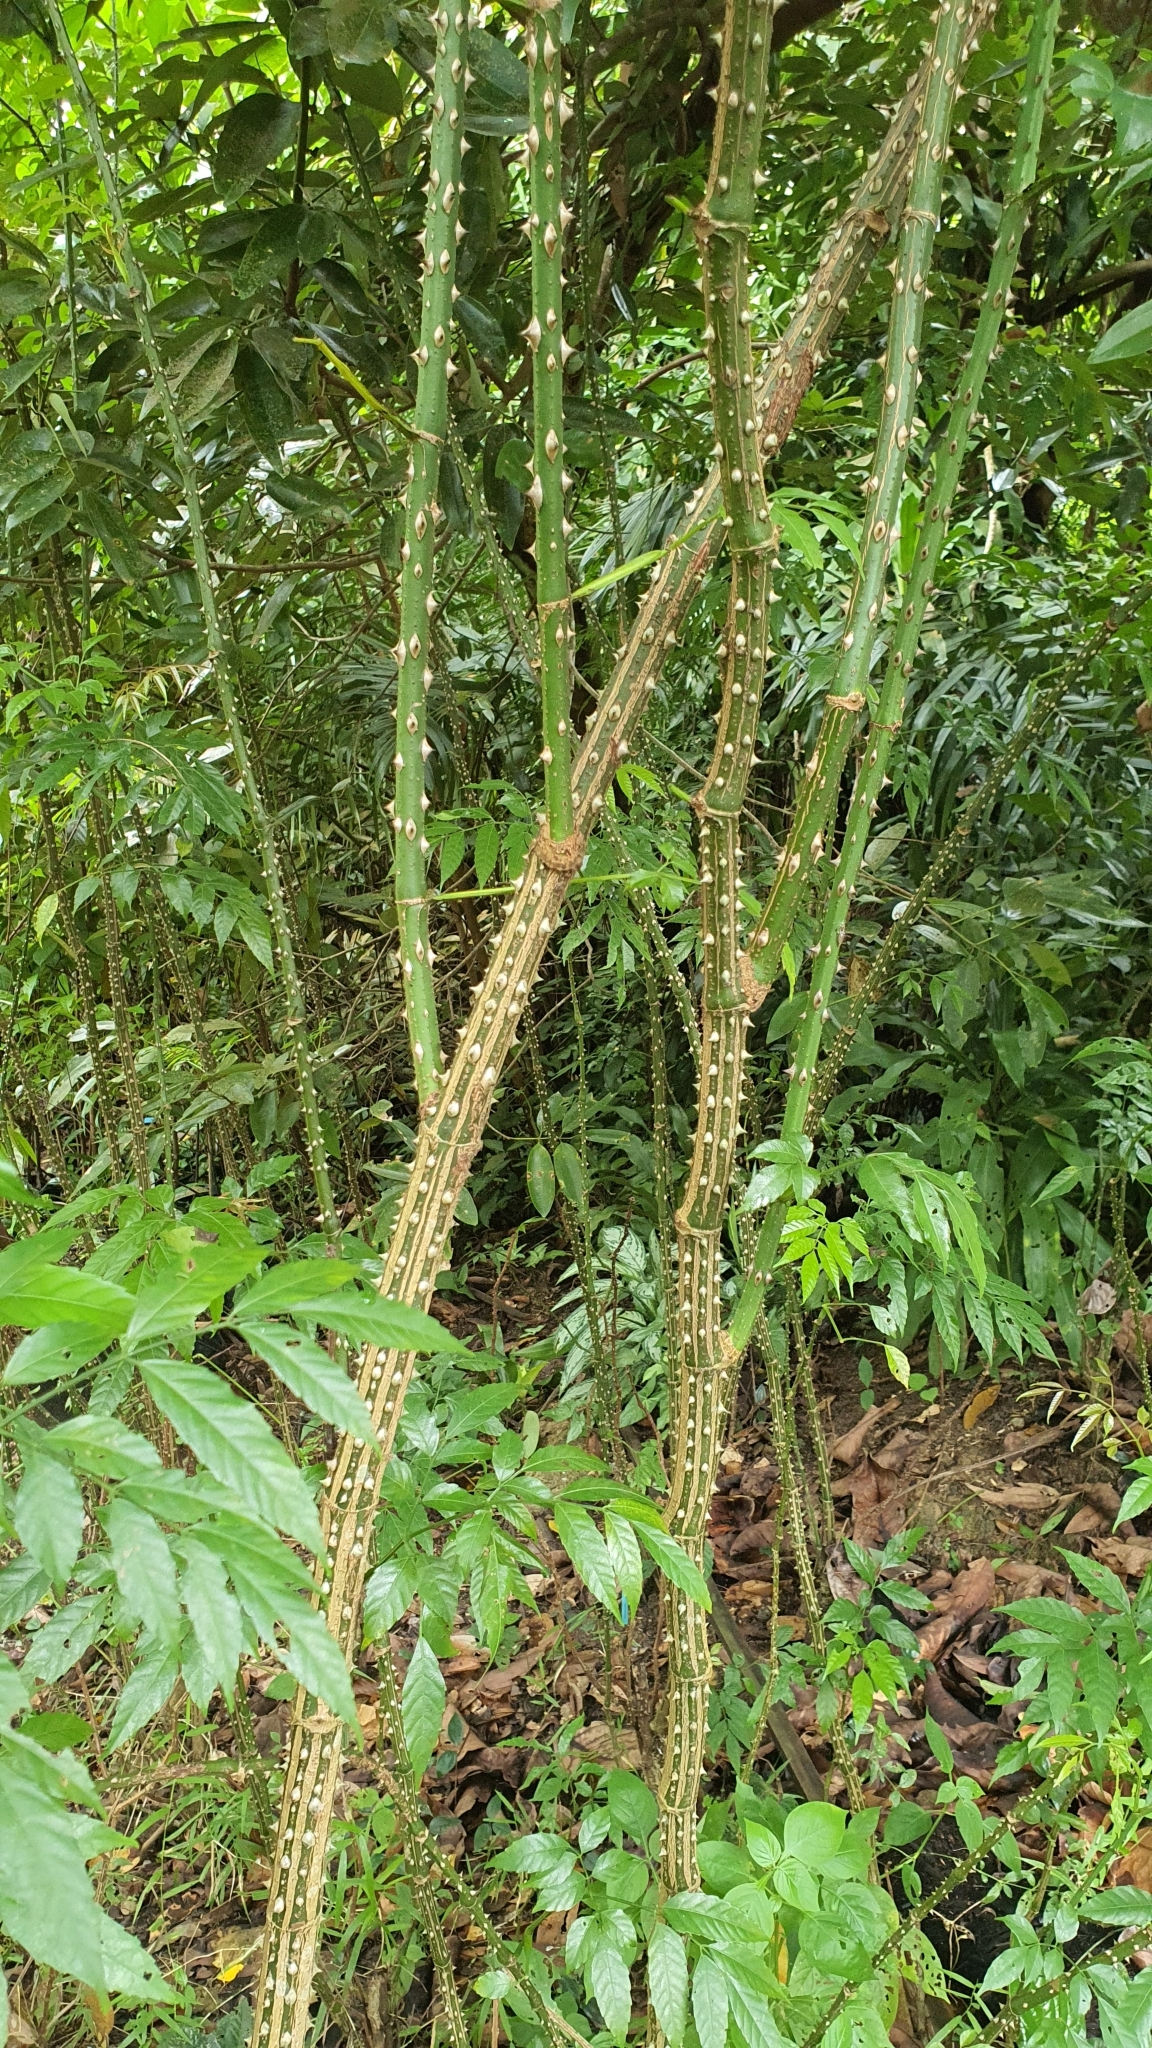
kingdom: Plantae
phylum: Tracheophyta
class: Magnoliopsida
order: Vitales
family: Vitaceae
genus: Leea
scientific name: Leea angulata
